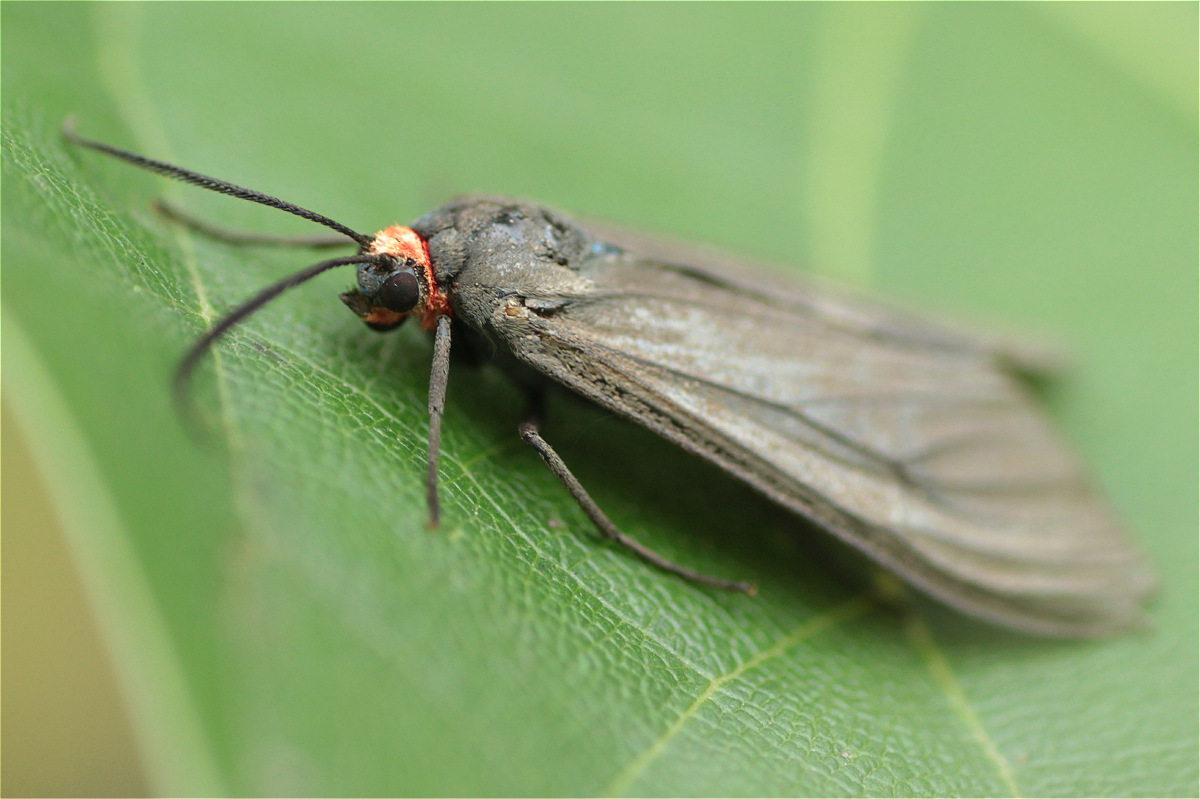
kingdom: Animalia
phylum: Arthropoda
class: Insecta
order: Lepidoptera
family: Erebidae
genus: Ctenucha
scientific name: Ctenucha rubriceps
